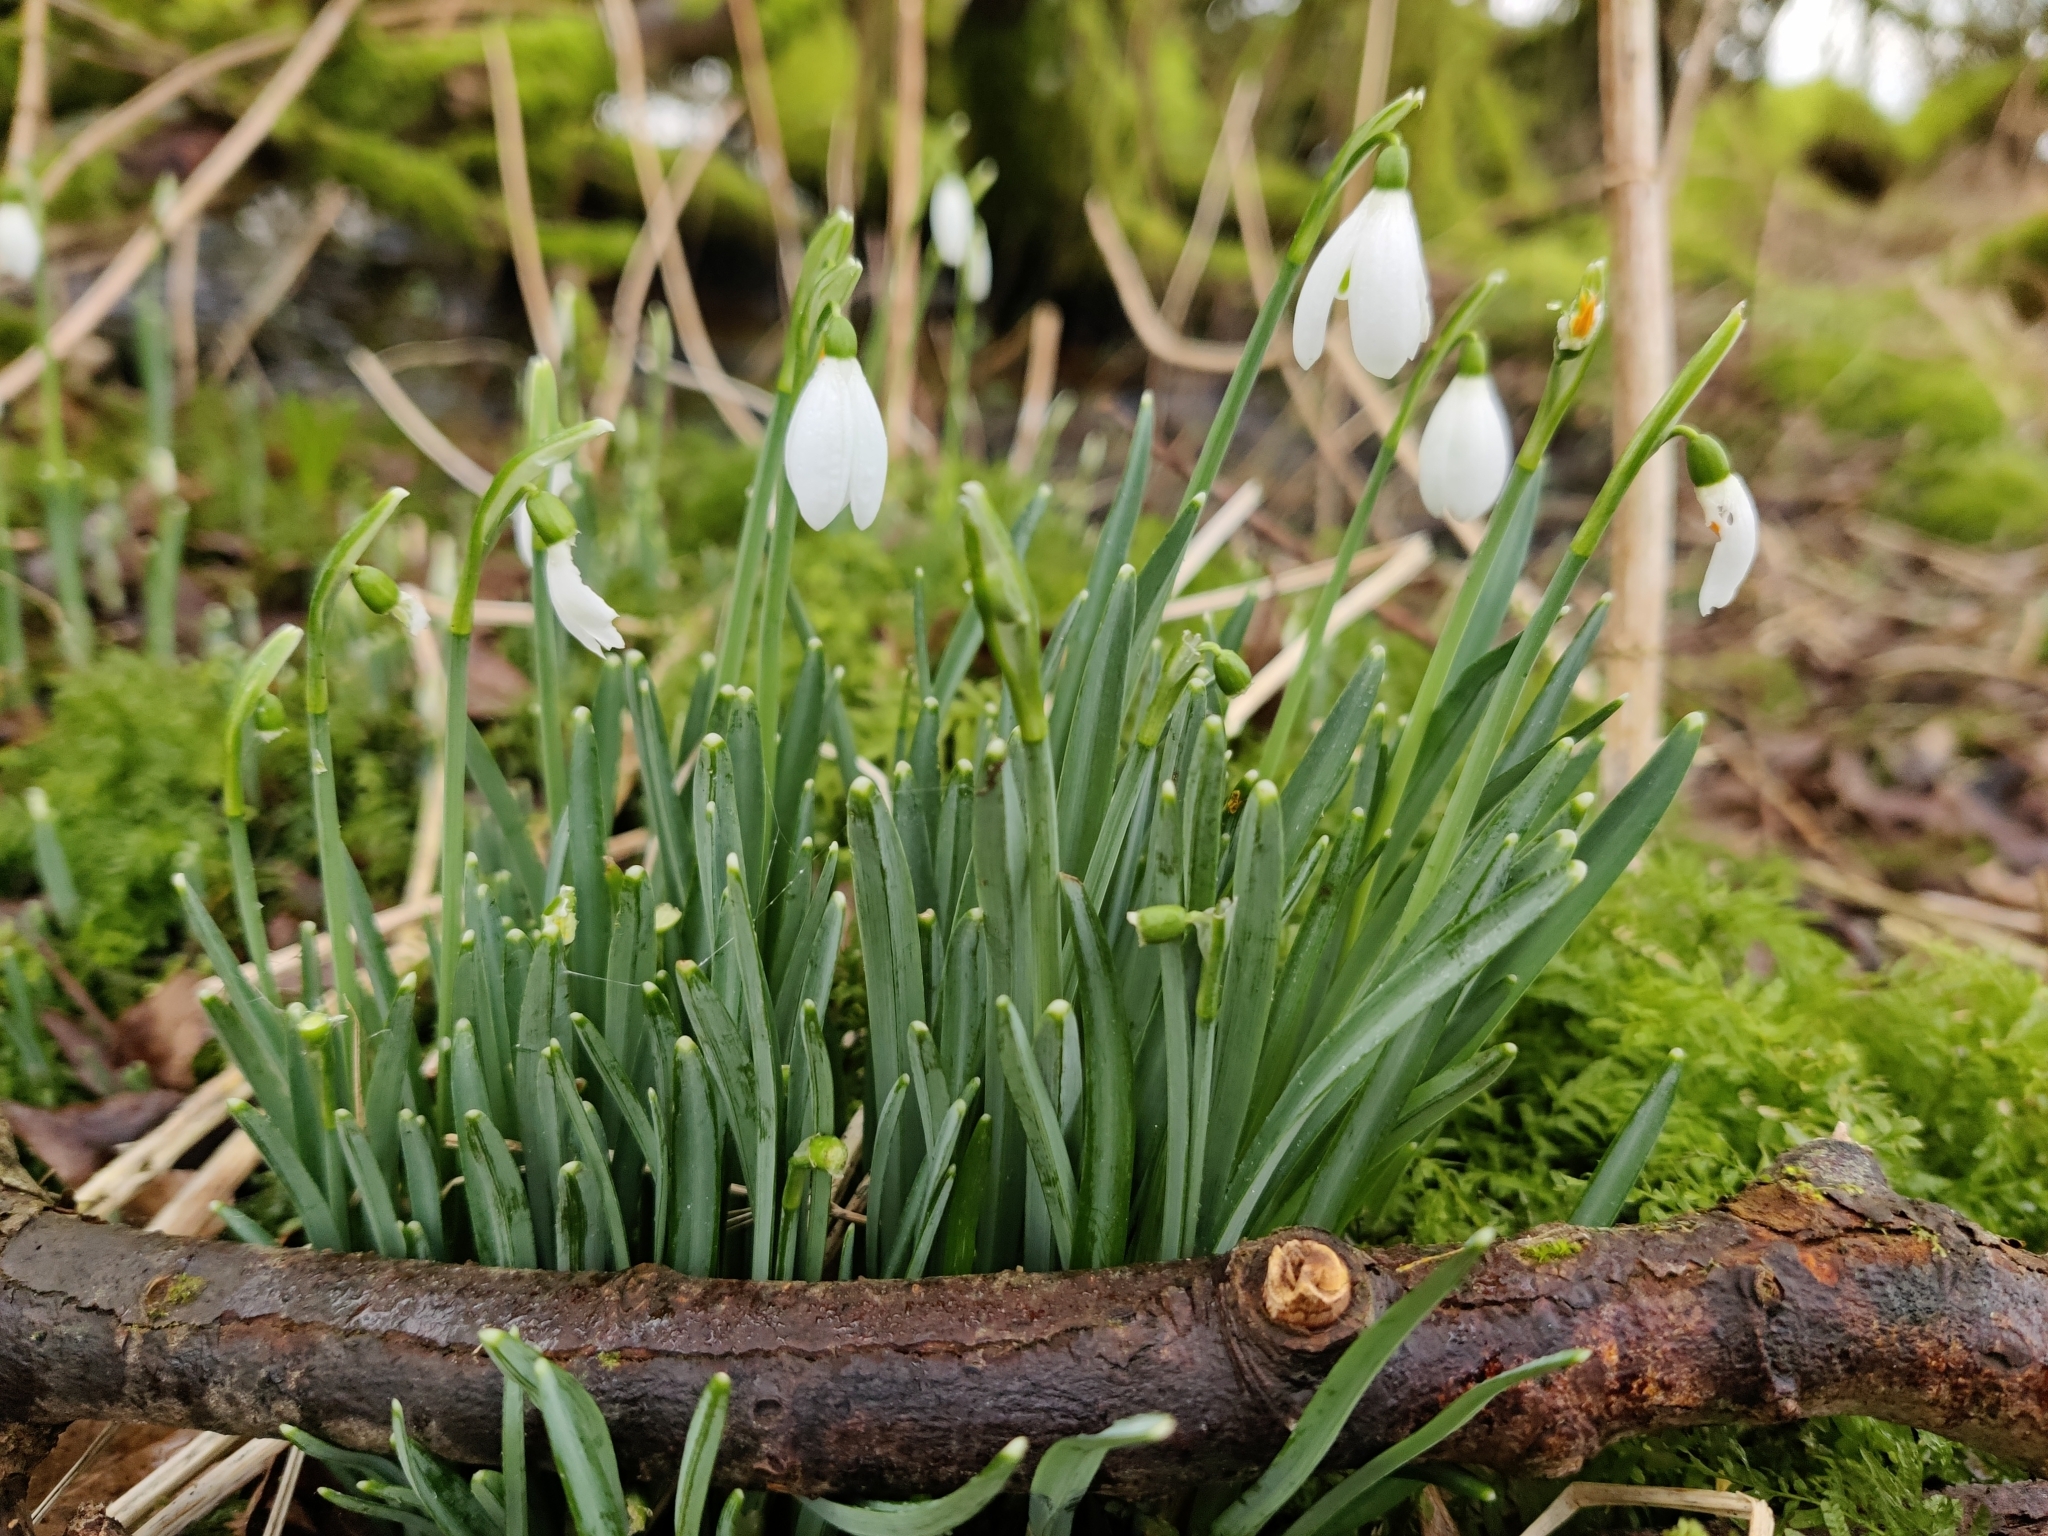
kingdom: Plantae
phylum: Tracheophyta
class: Liliopsida
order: Asparagales
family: Amaryllidaceae
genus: Galanthus
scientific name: Galanthus nivalis
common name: Snowdrop
